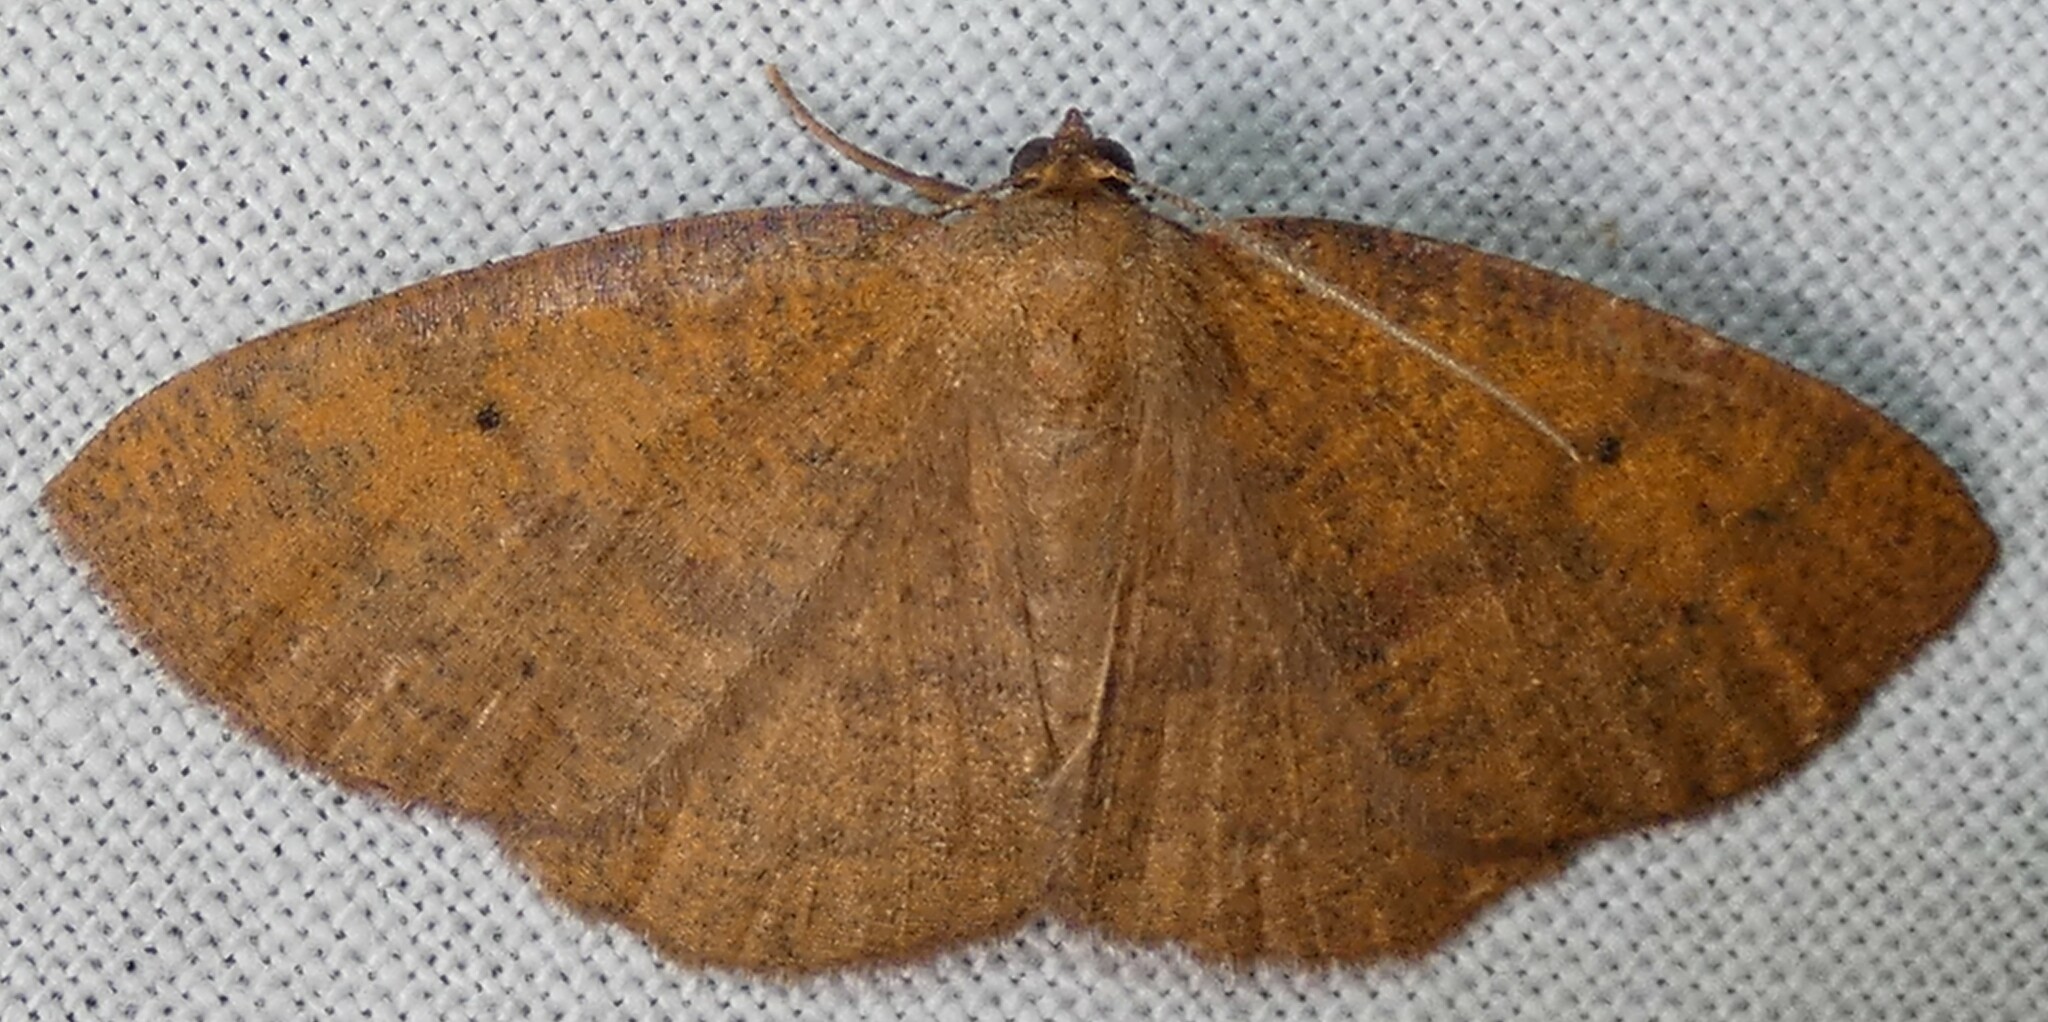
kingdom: Animalia
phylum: Arthropoda
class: Insecta
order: Lepidoptera
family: Geometridae
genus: Ilexia
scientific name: Ilexia intractata
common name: Black-dotted ruddy moth
